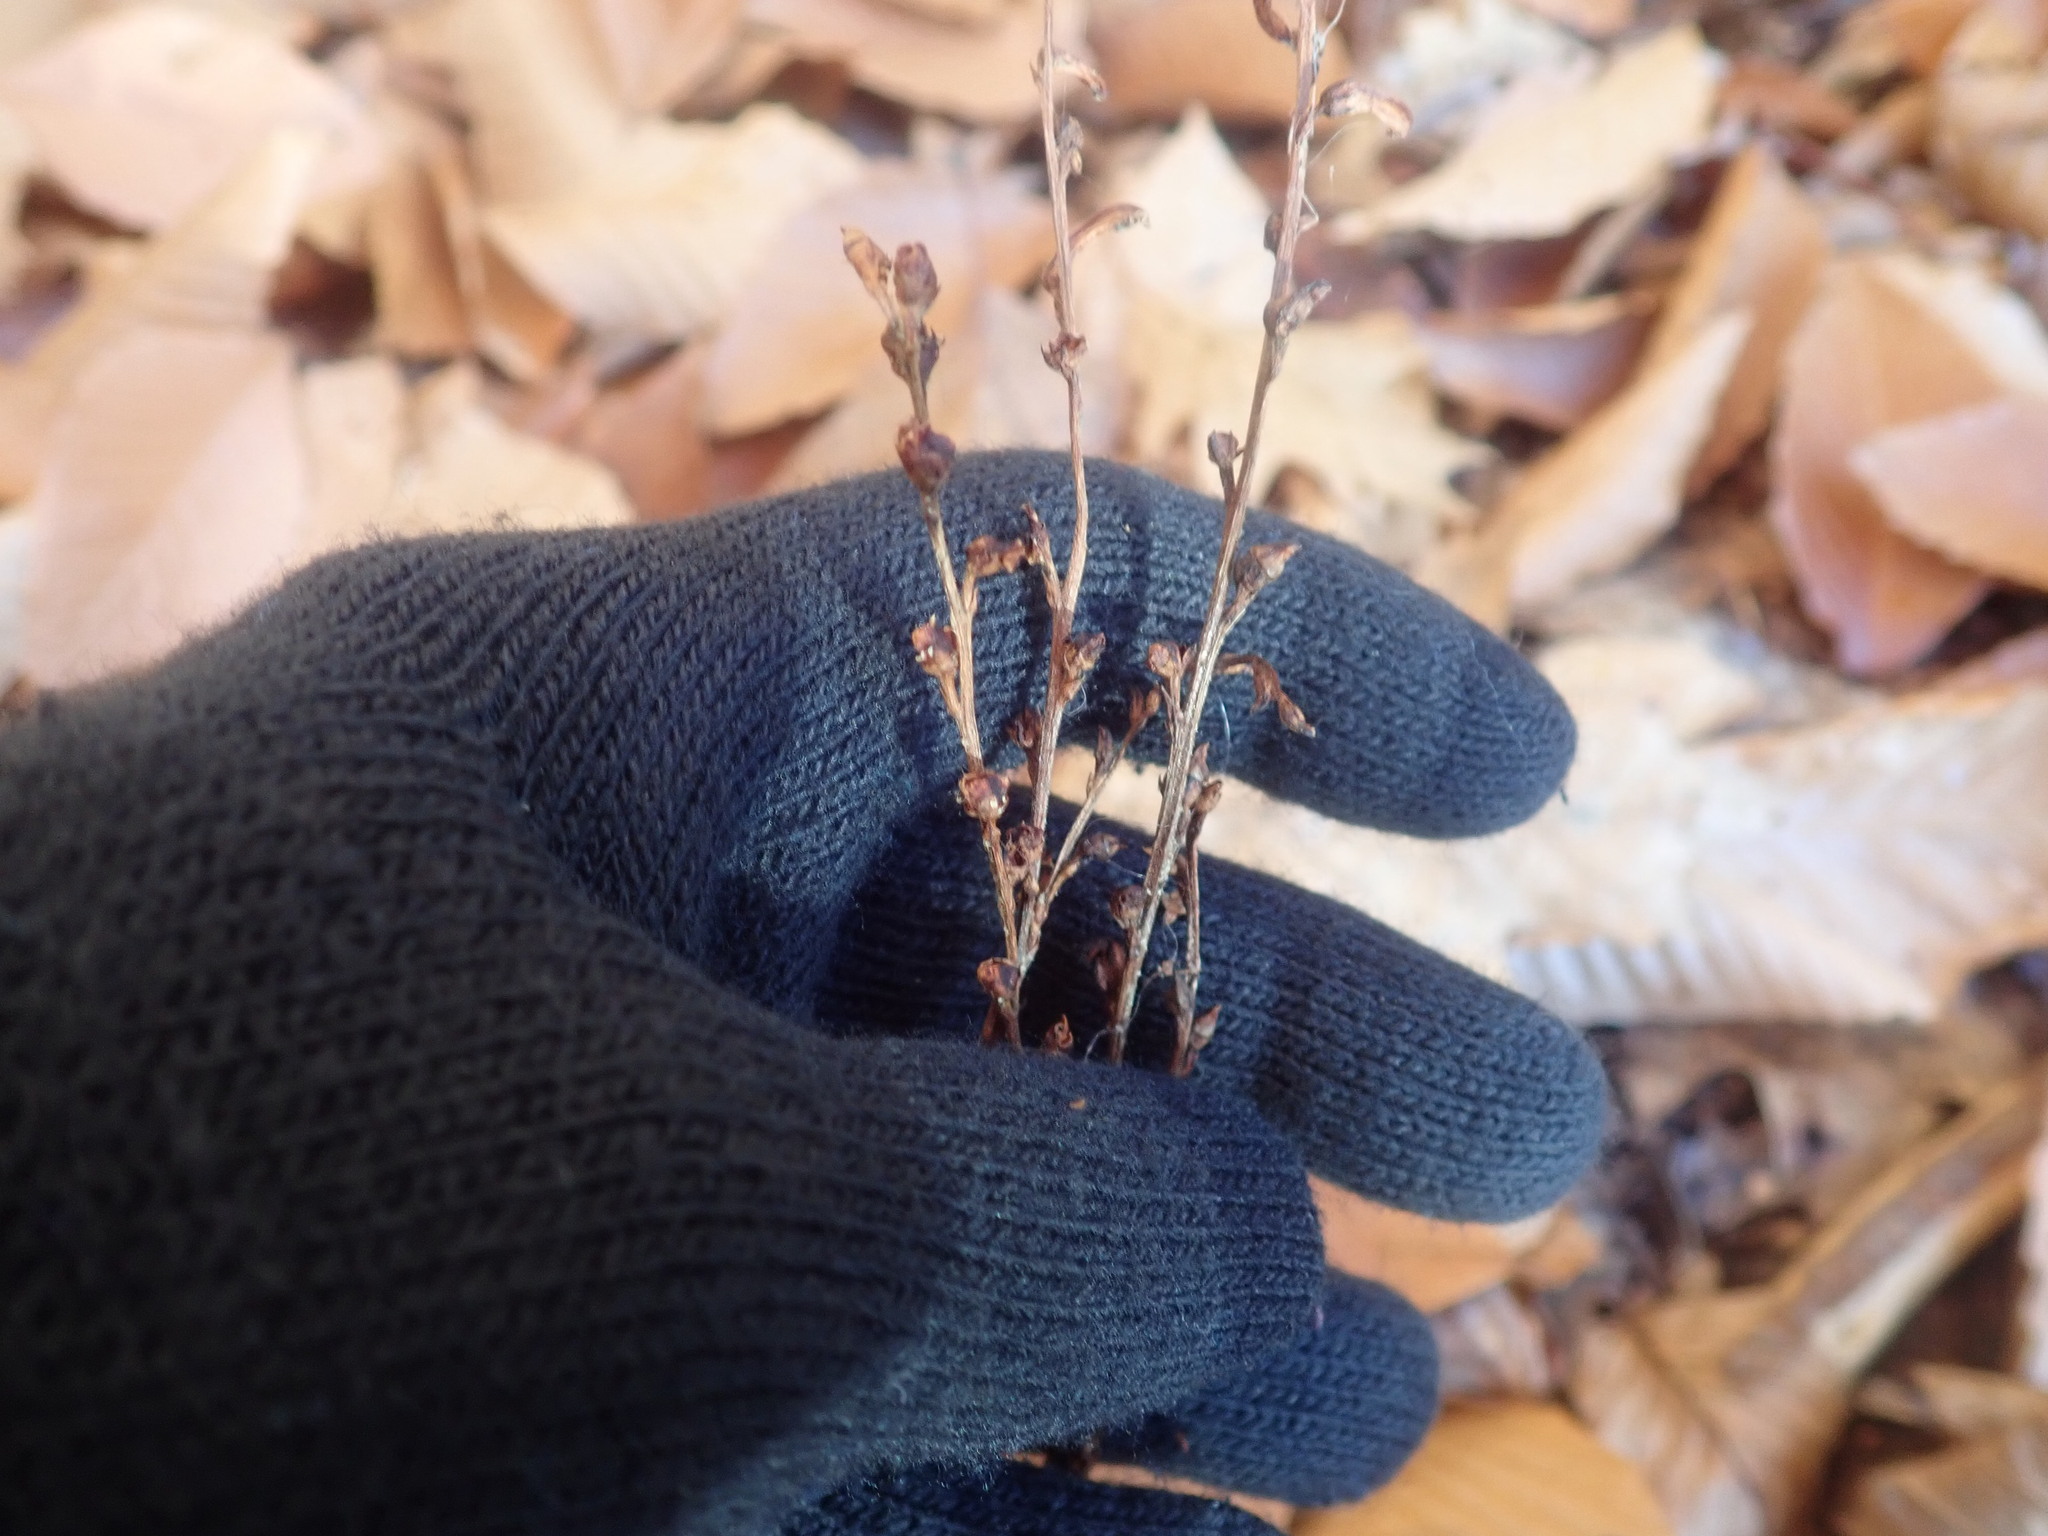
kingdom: Plantae
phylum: Tracheophyta
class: Magnoliopsida
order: Lamiales
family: Orobanchaceae
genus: Epifagus
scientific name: Epifagus virginiana
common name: Beechdrops
